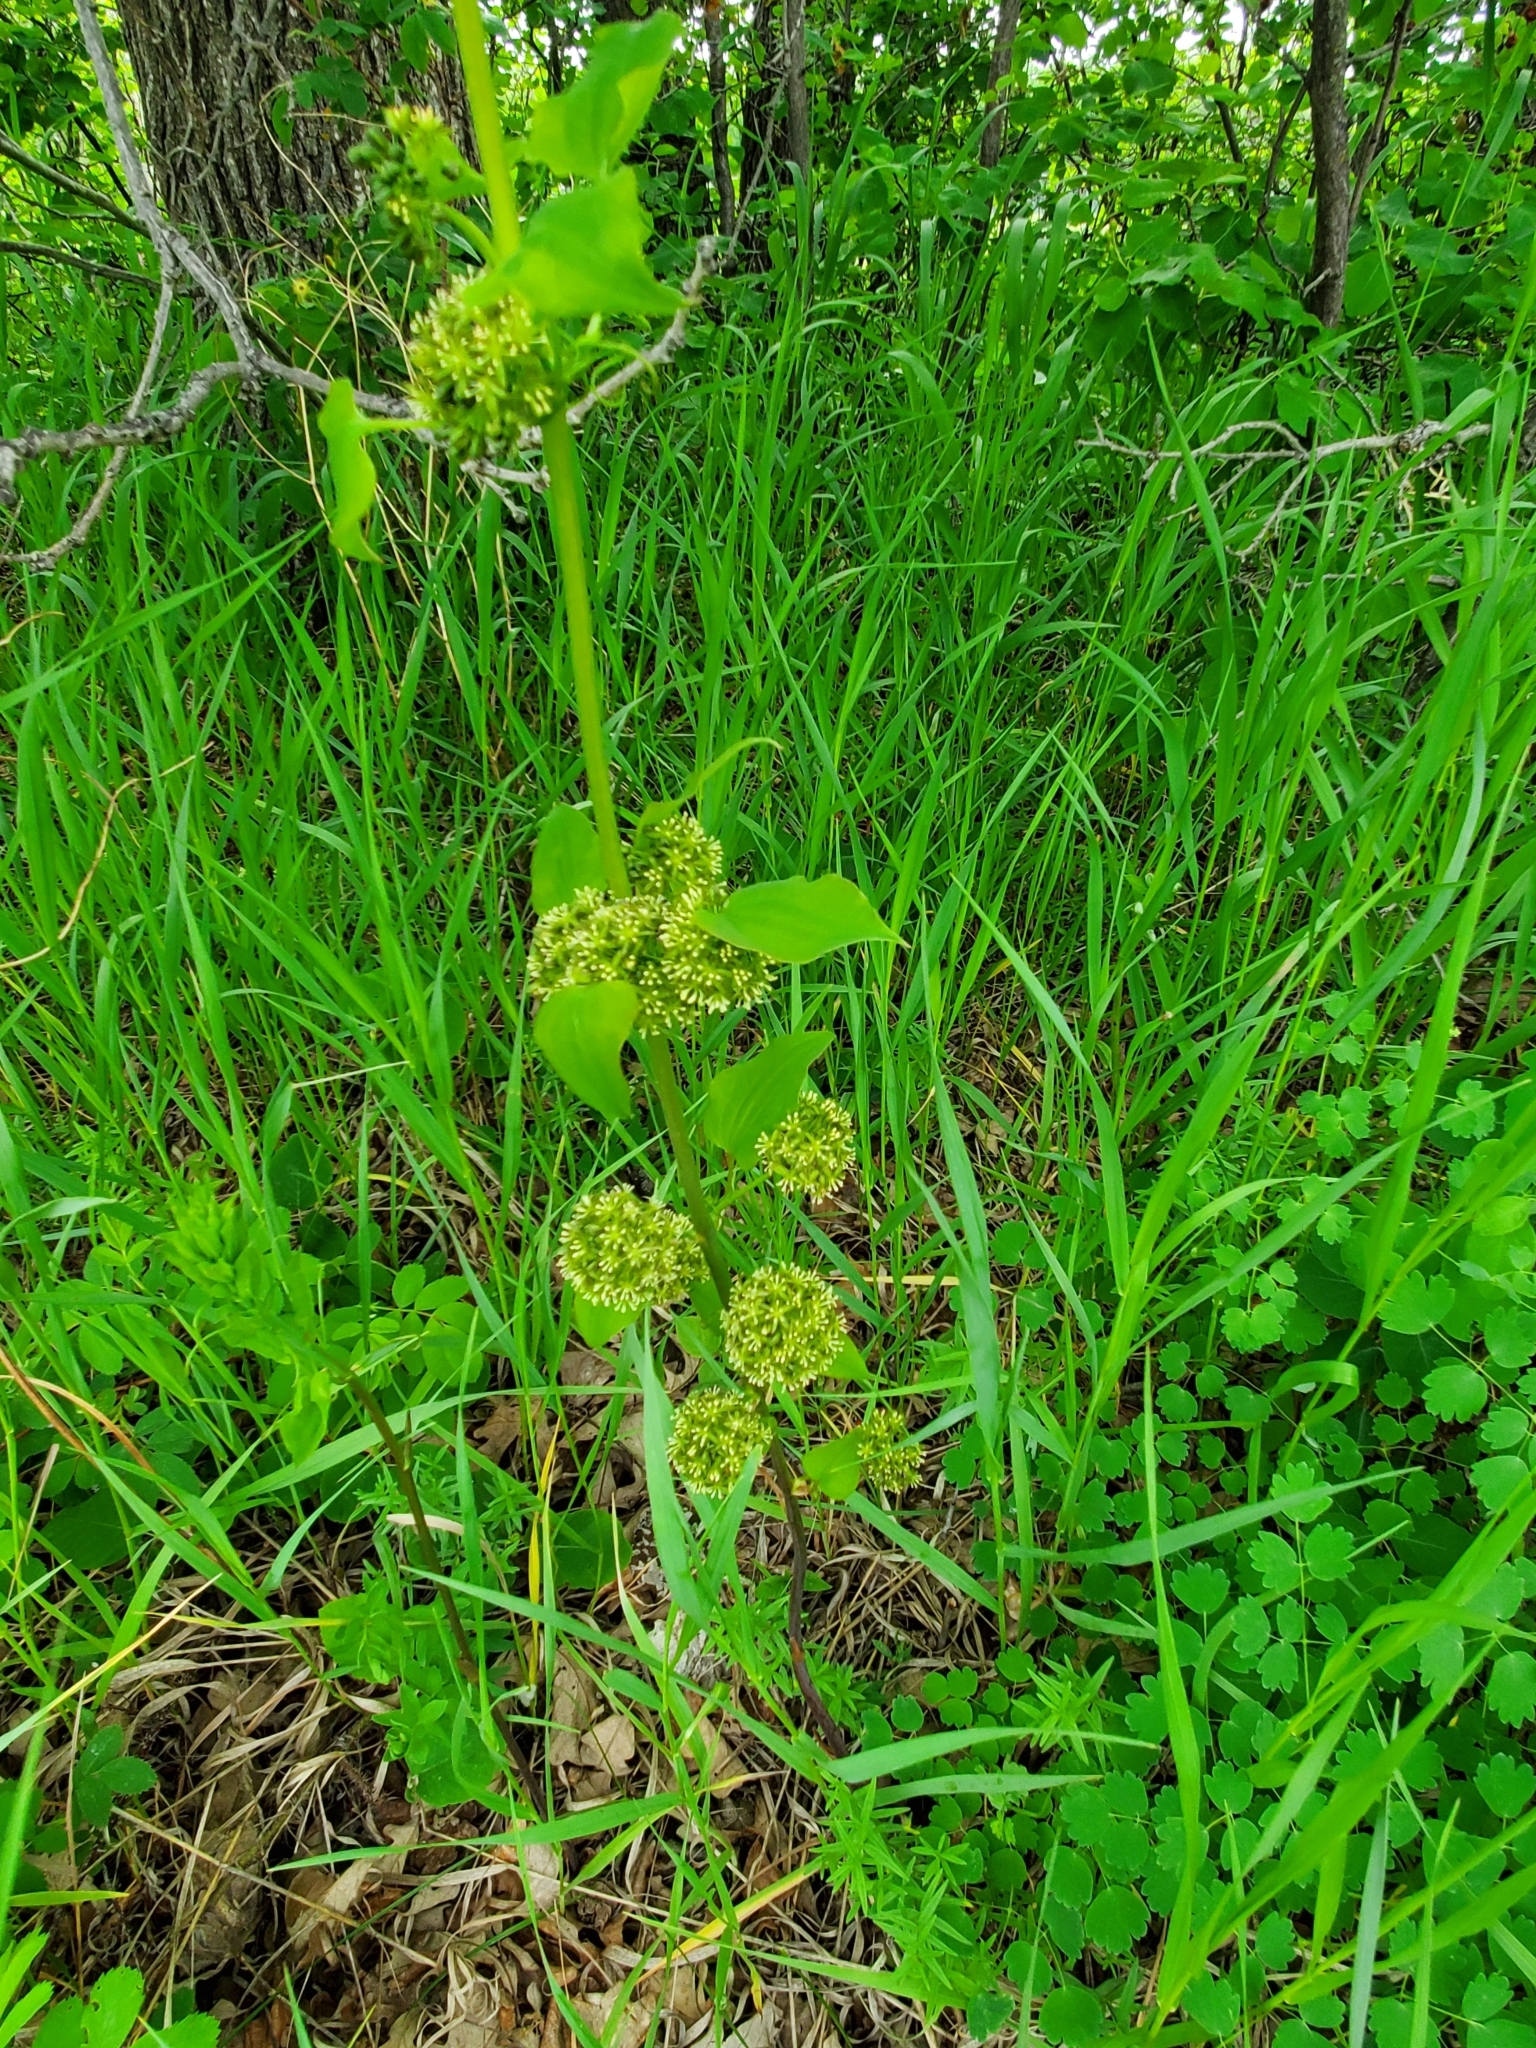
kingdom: Plantae
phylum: Tracheophyta
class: Liliopsida
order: Liliales
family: Smilacaceae
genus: Smilax
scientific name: Smilax lasioneura
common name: Blue ridge carrionflower
